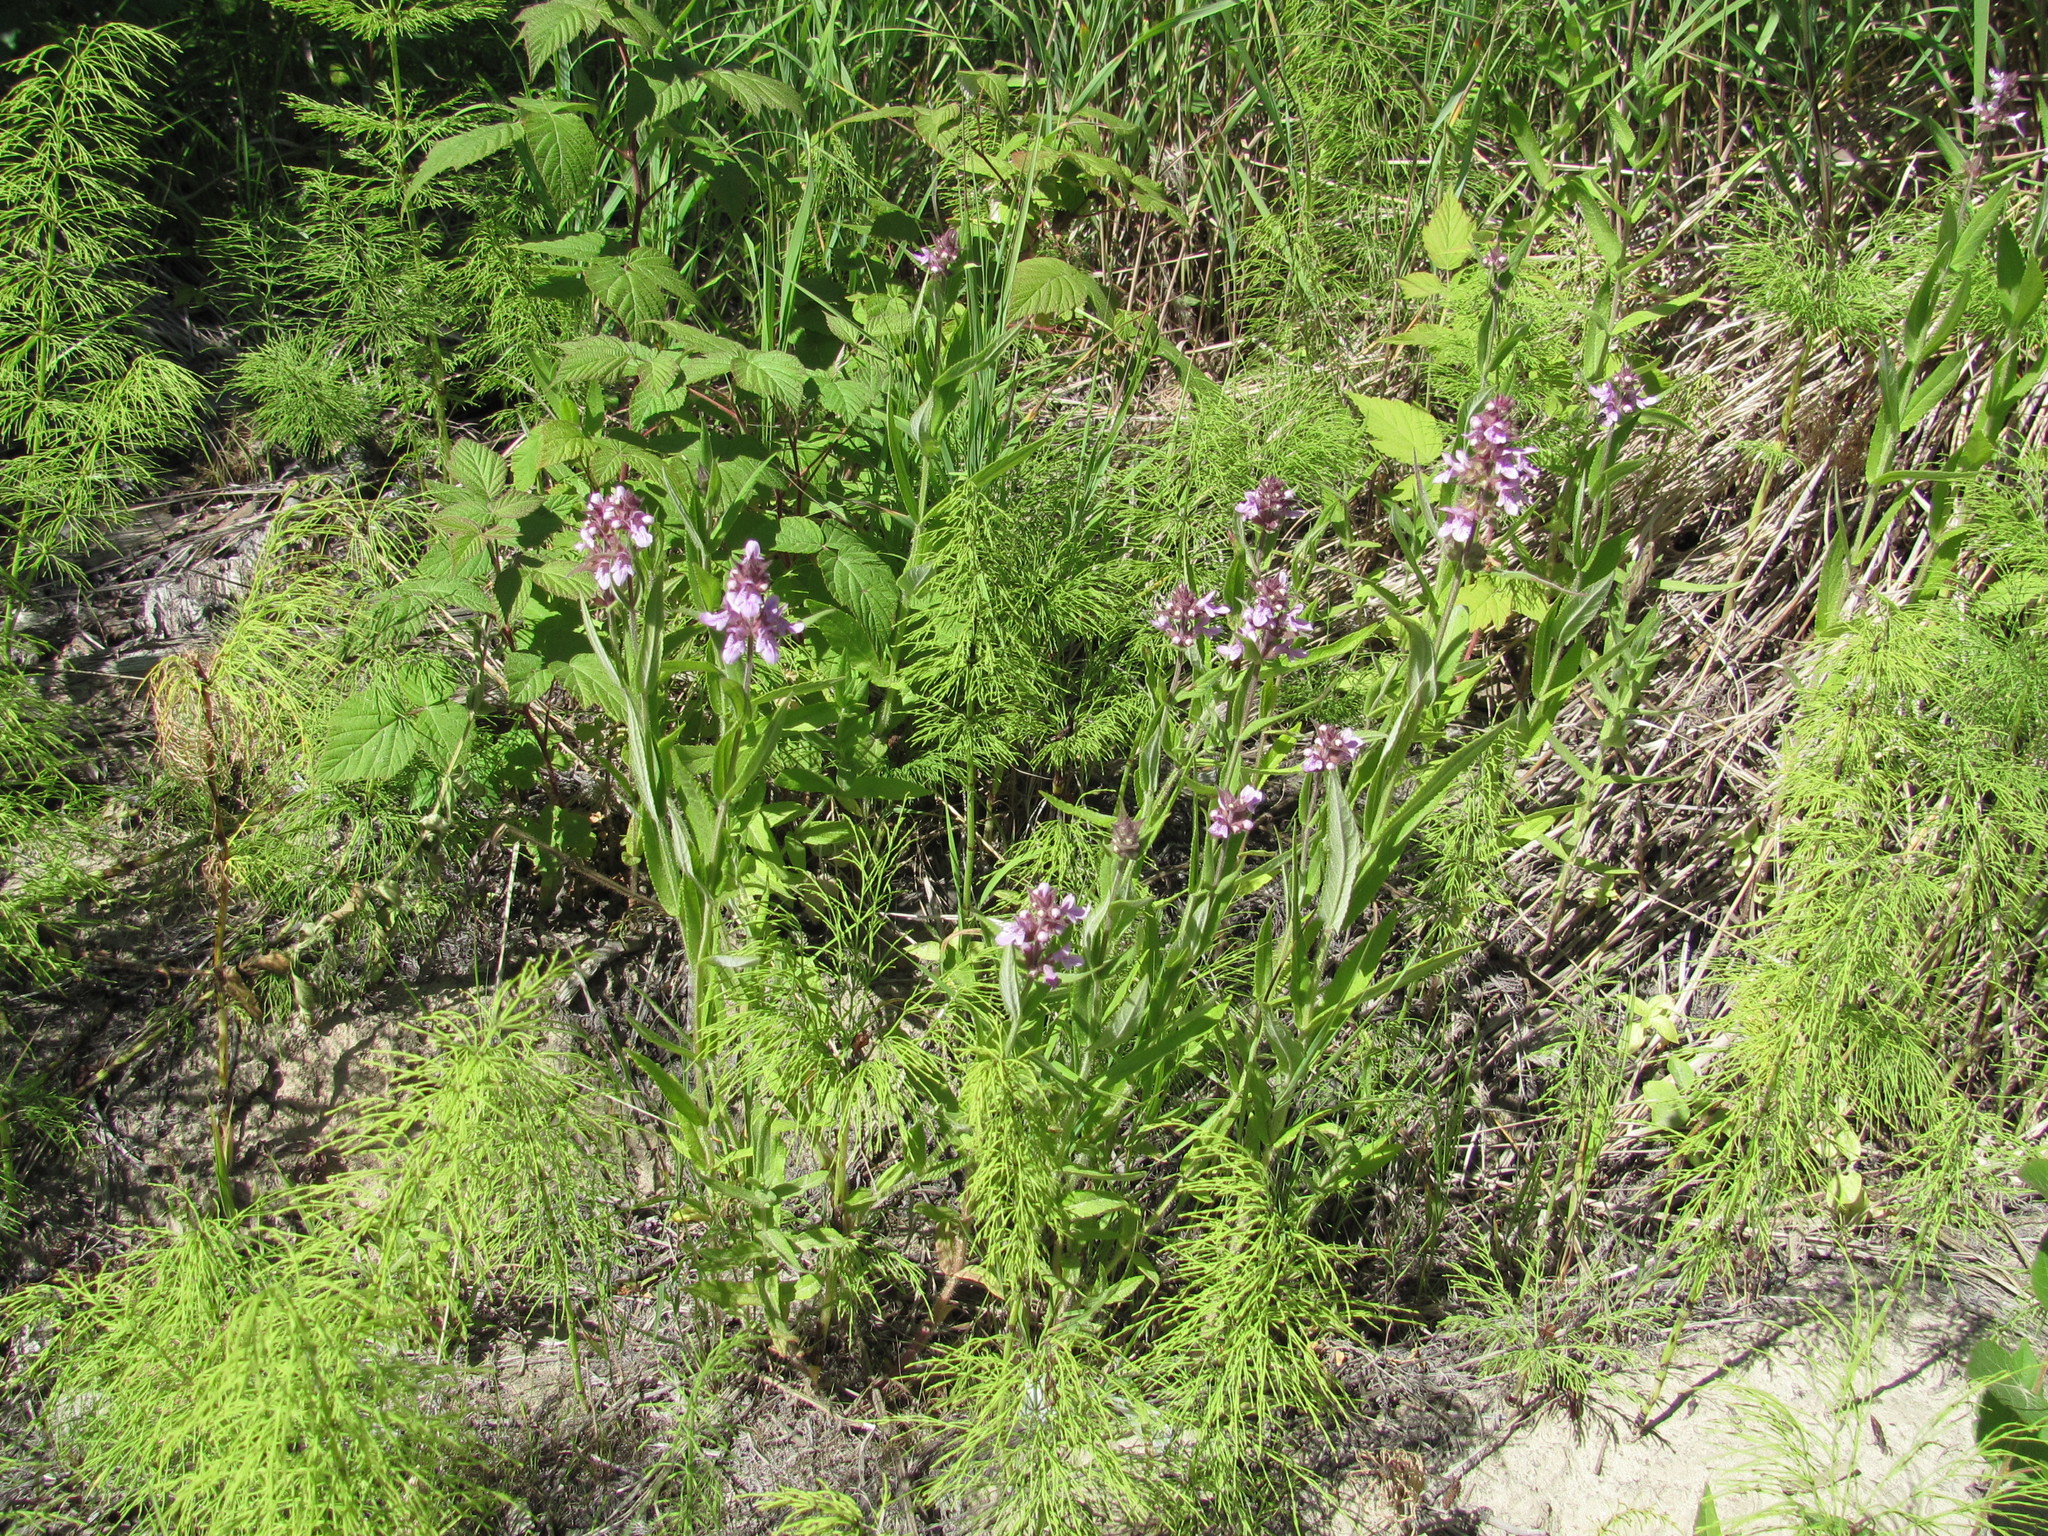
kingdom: Plantae
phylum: Tracheophyta
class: Magnoliopsida
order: Lamiales
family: Lamiaceae
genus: Stachys
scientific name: Stachys palustris
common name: Marsh woundwort
